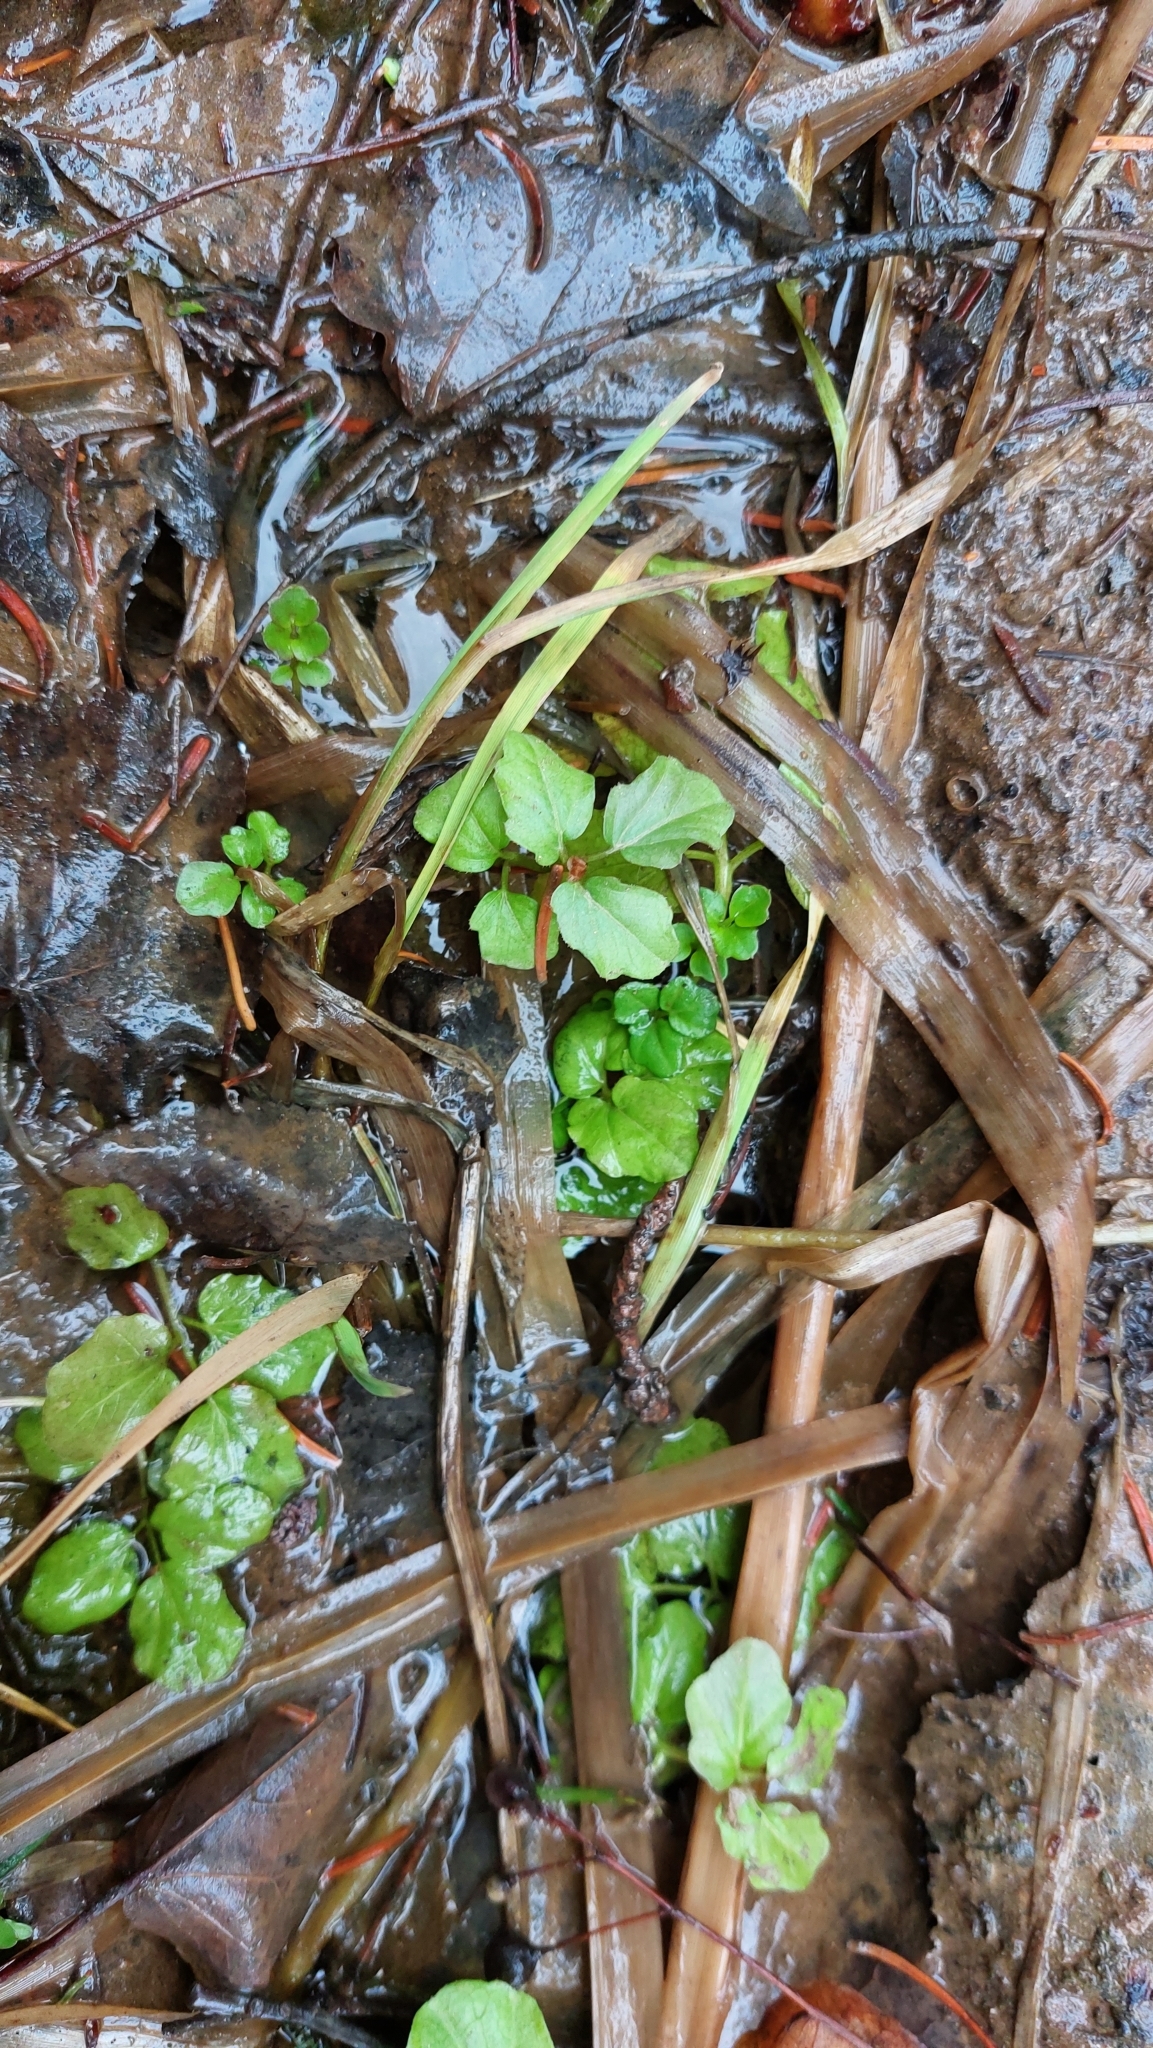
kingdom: Plantae
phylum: Tracheophyta
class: Magnoliopsida
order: Brassicales
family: Brassicaceae
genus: Cardamine
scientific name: Cardamine amara
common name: Large bitter-cress
